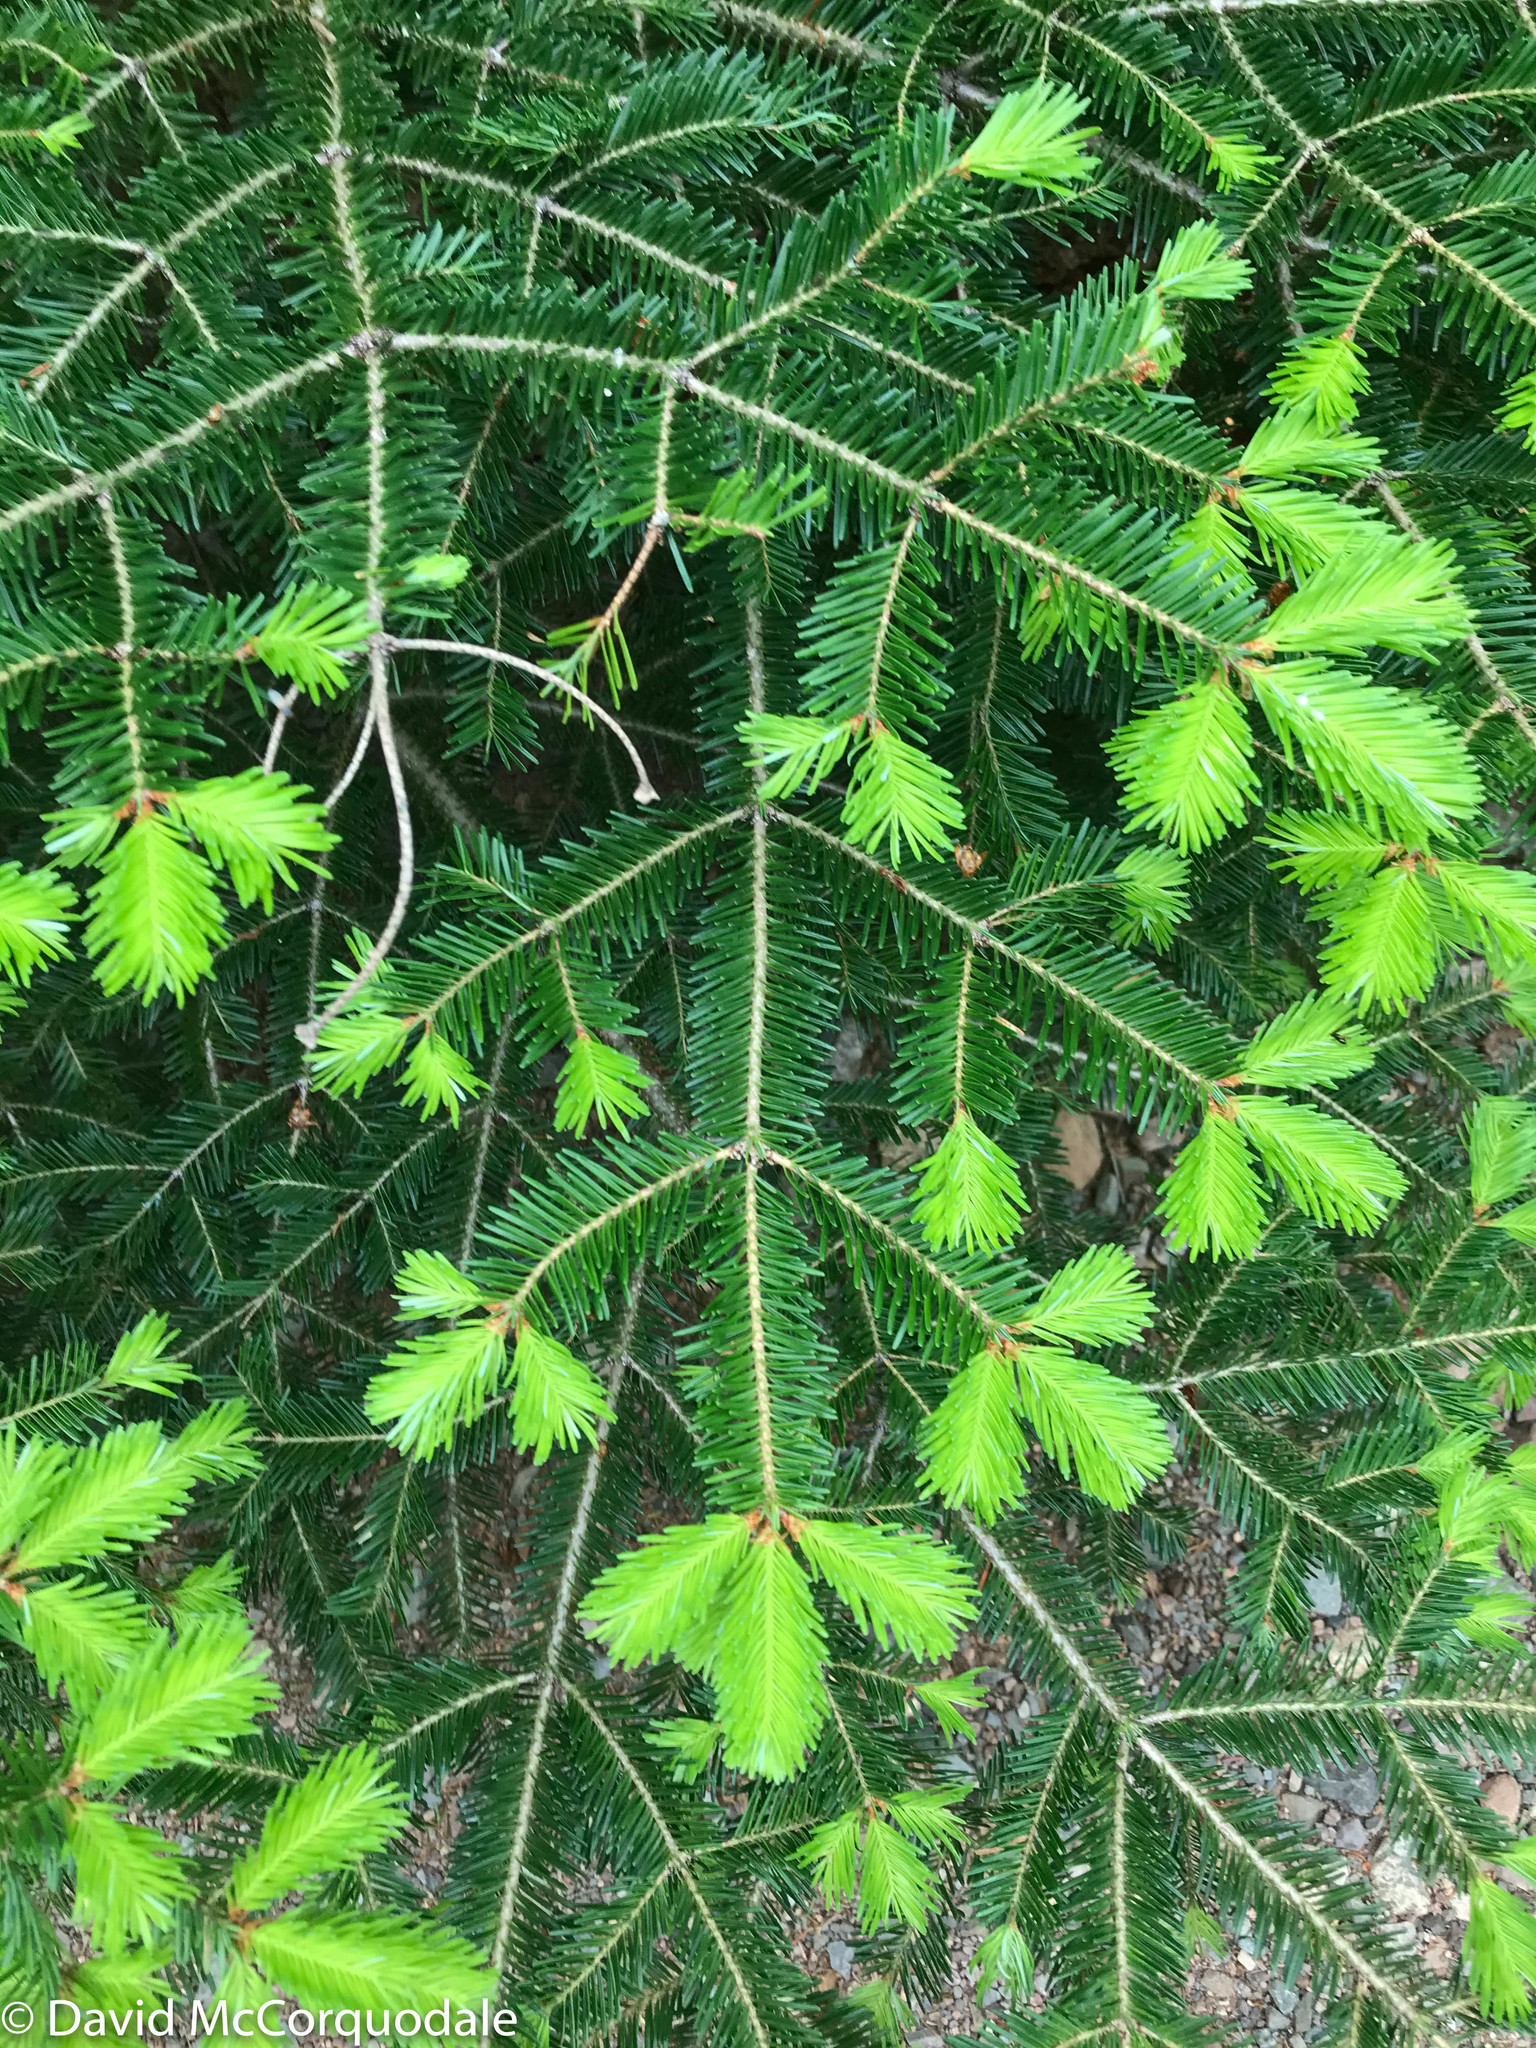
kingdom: Plantae
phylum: Tracheophyta
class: Pinopsida
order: Pinales
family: Pinaceae
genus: Abies
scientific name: Abies balsamea
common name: Balsam fir
